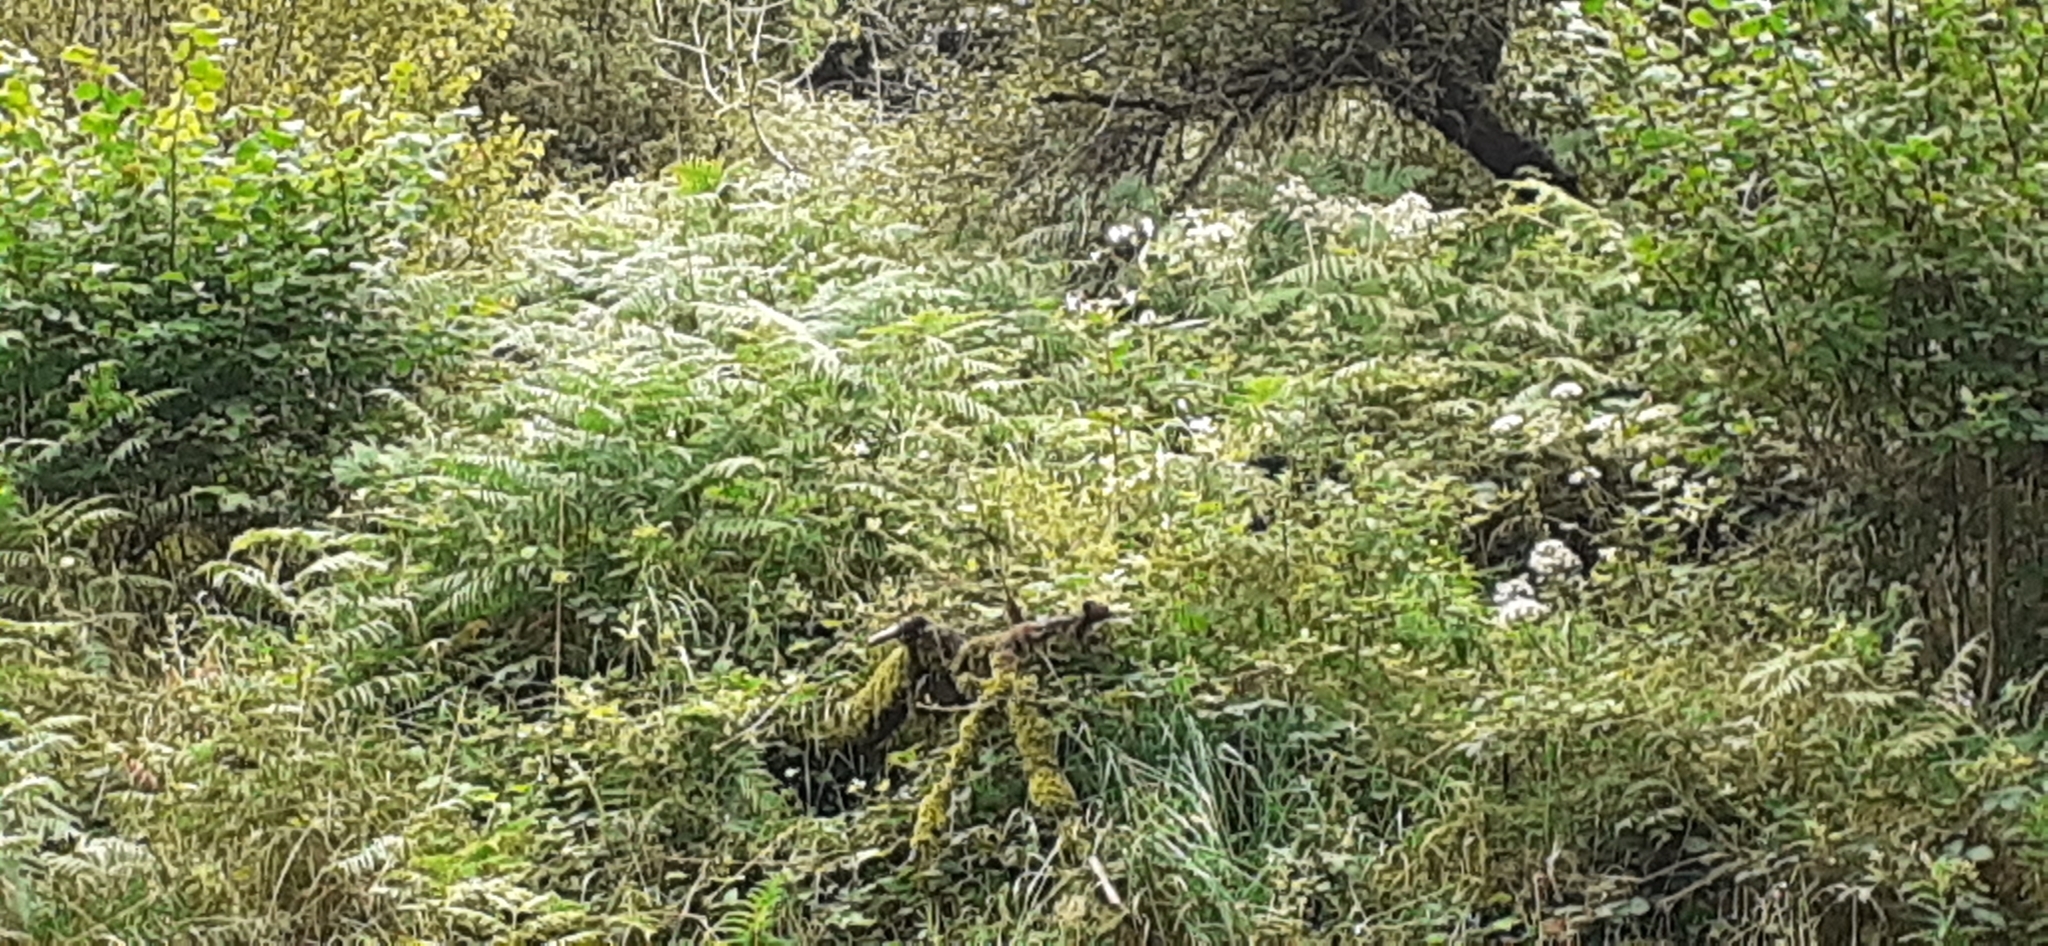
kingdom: Plantae
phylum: Tracheophyta
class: Magnoliopsida
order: Ericales
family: Balsaminaceae
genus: Impatiens
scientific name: Impatiens glandulifera
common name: Himalayan balsam
